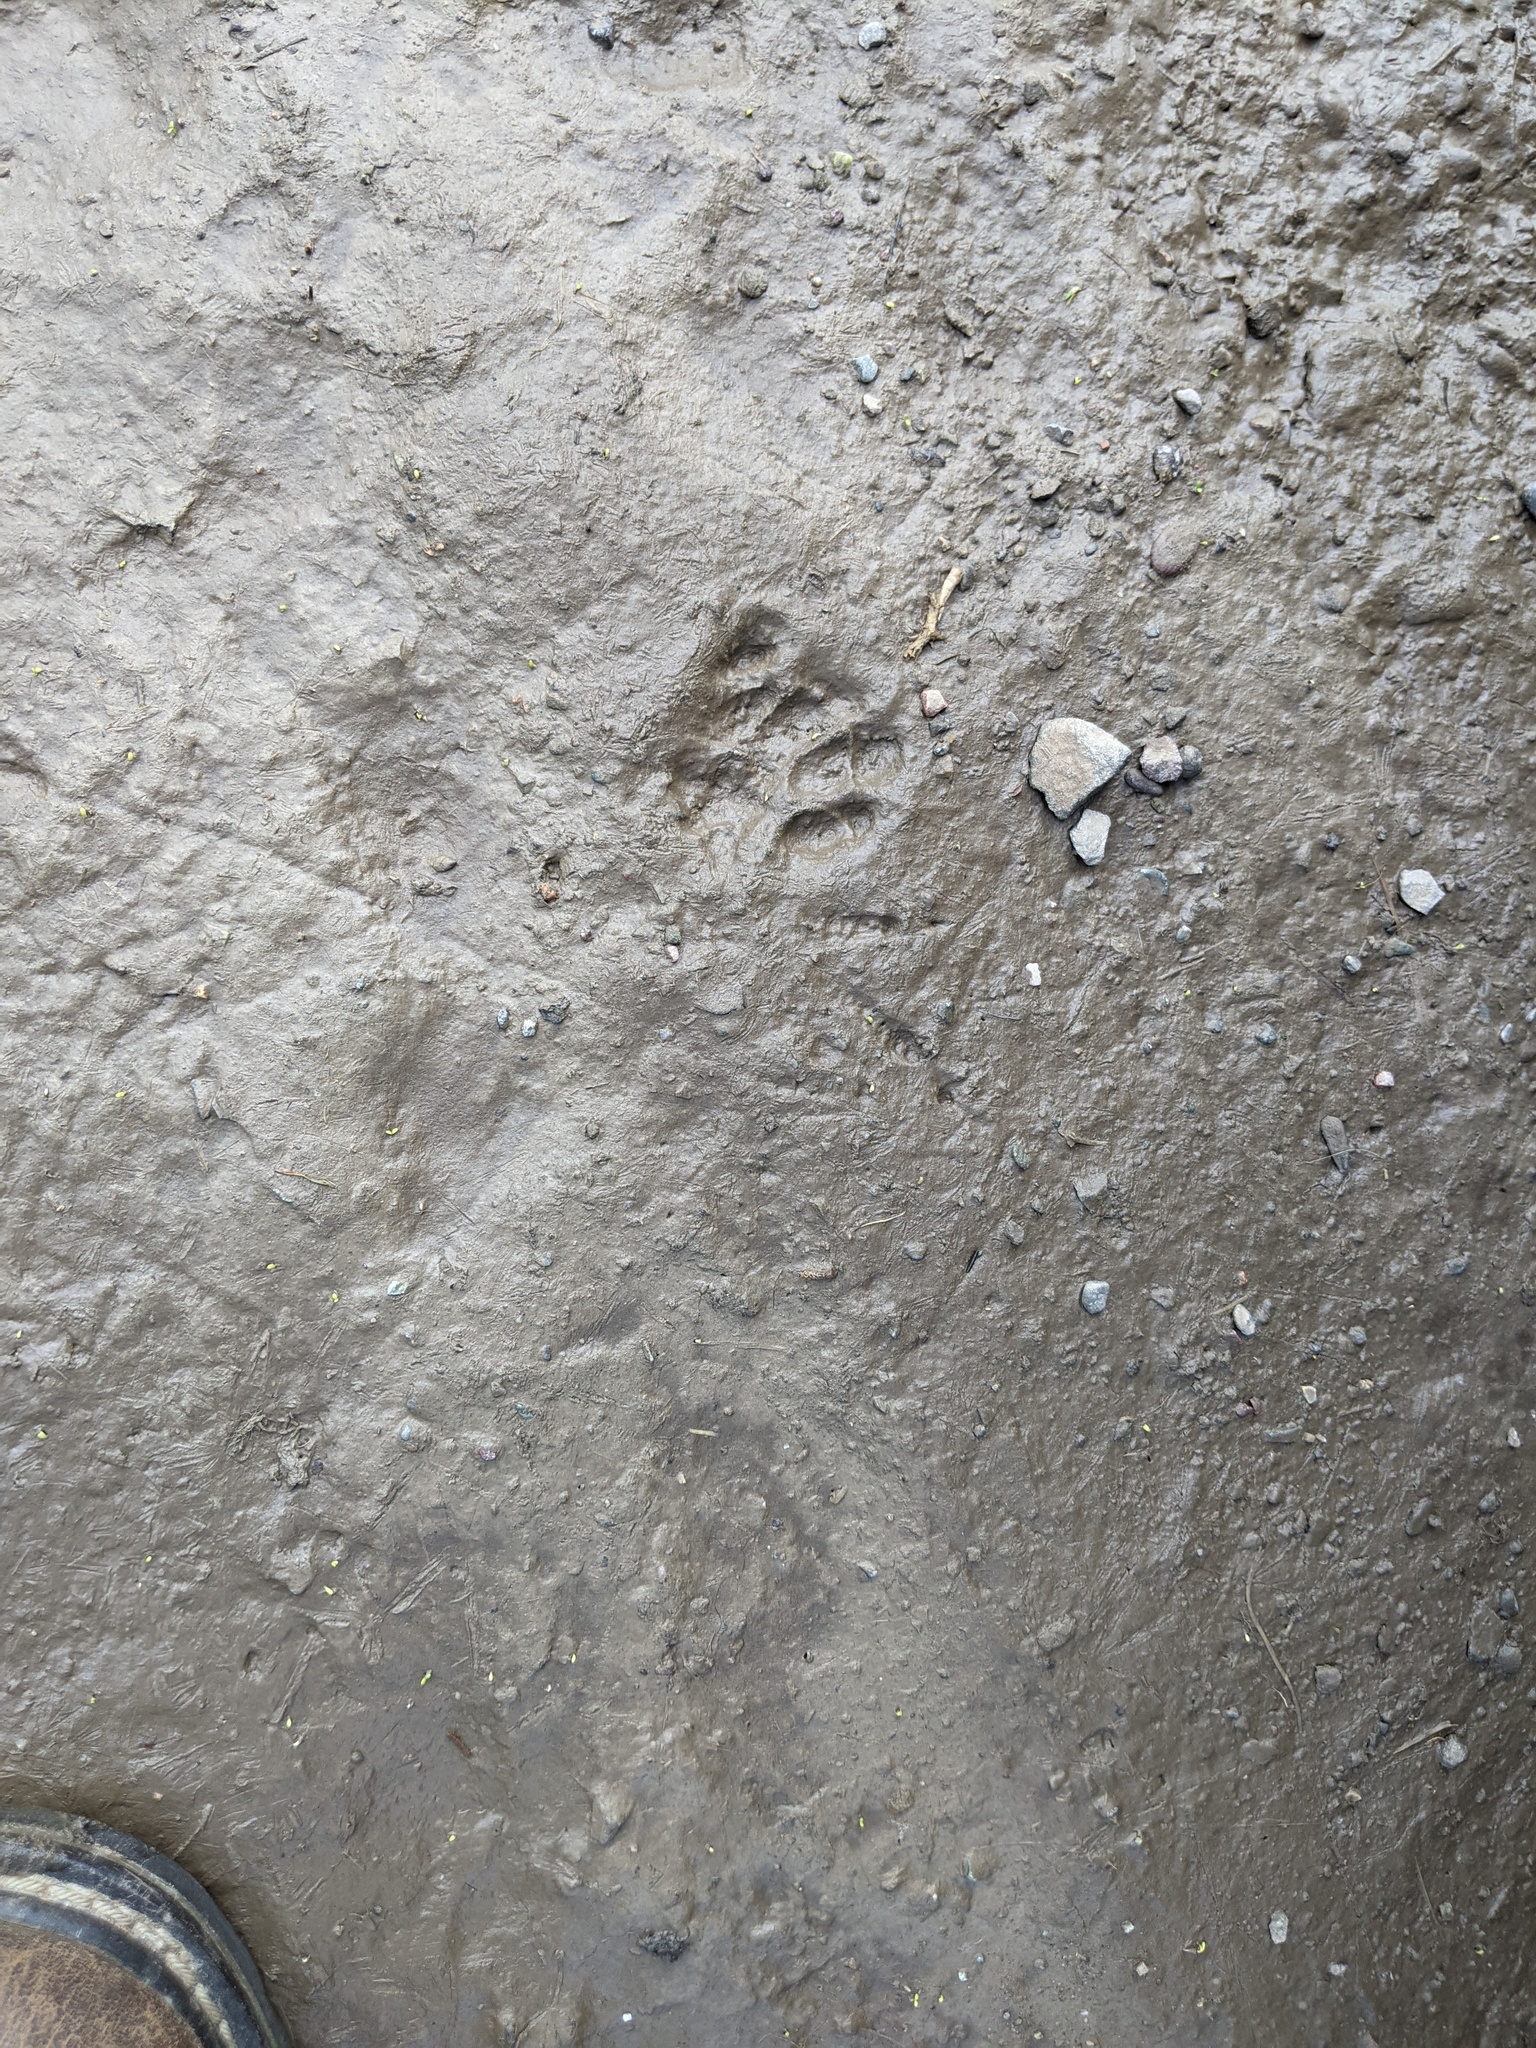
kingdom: Animalia
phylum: Chordata
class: Mammalia
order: Carnivora
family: Felidae
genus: Felis
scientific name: Felis catus
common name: Domestic cat
